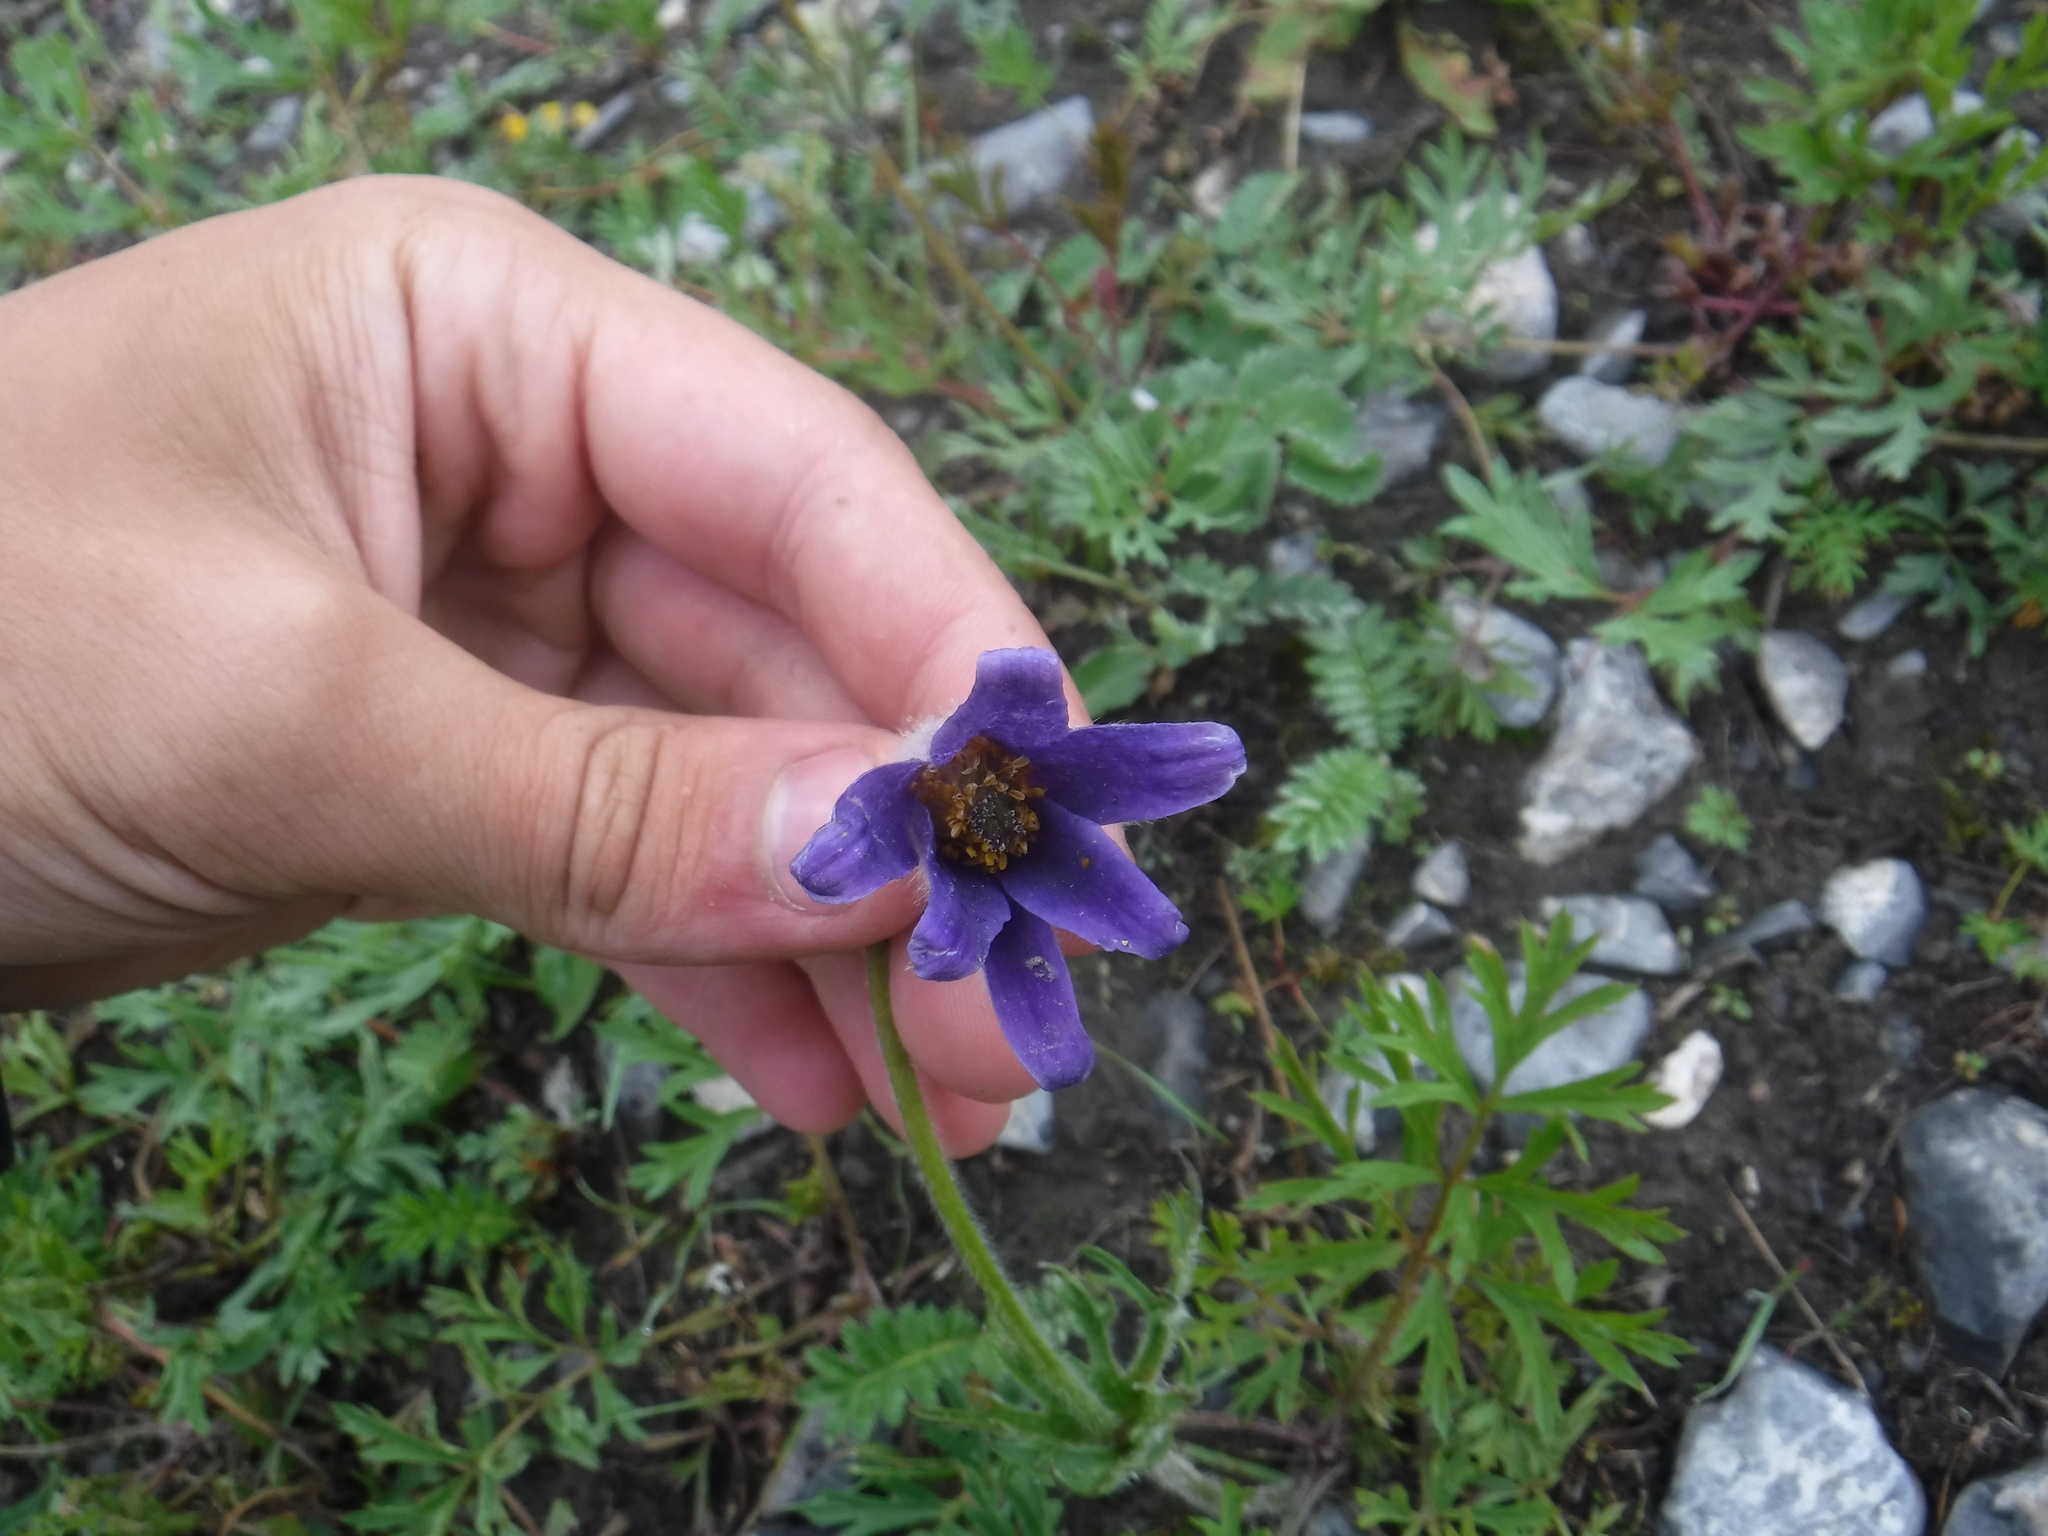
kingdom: Plantae
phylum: Tracheophyta
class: Magnoliopsida
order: Ranunculales
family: Ranunculaceae
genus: Pulsatilla
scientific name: Pulsatilla turczaninovii
